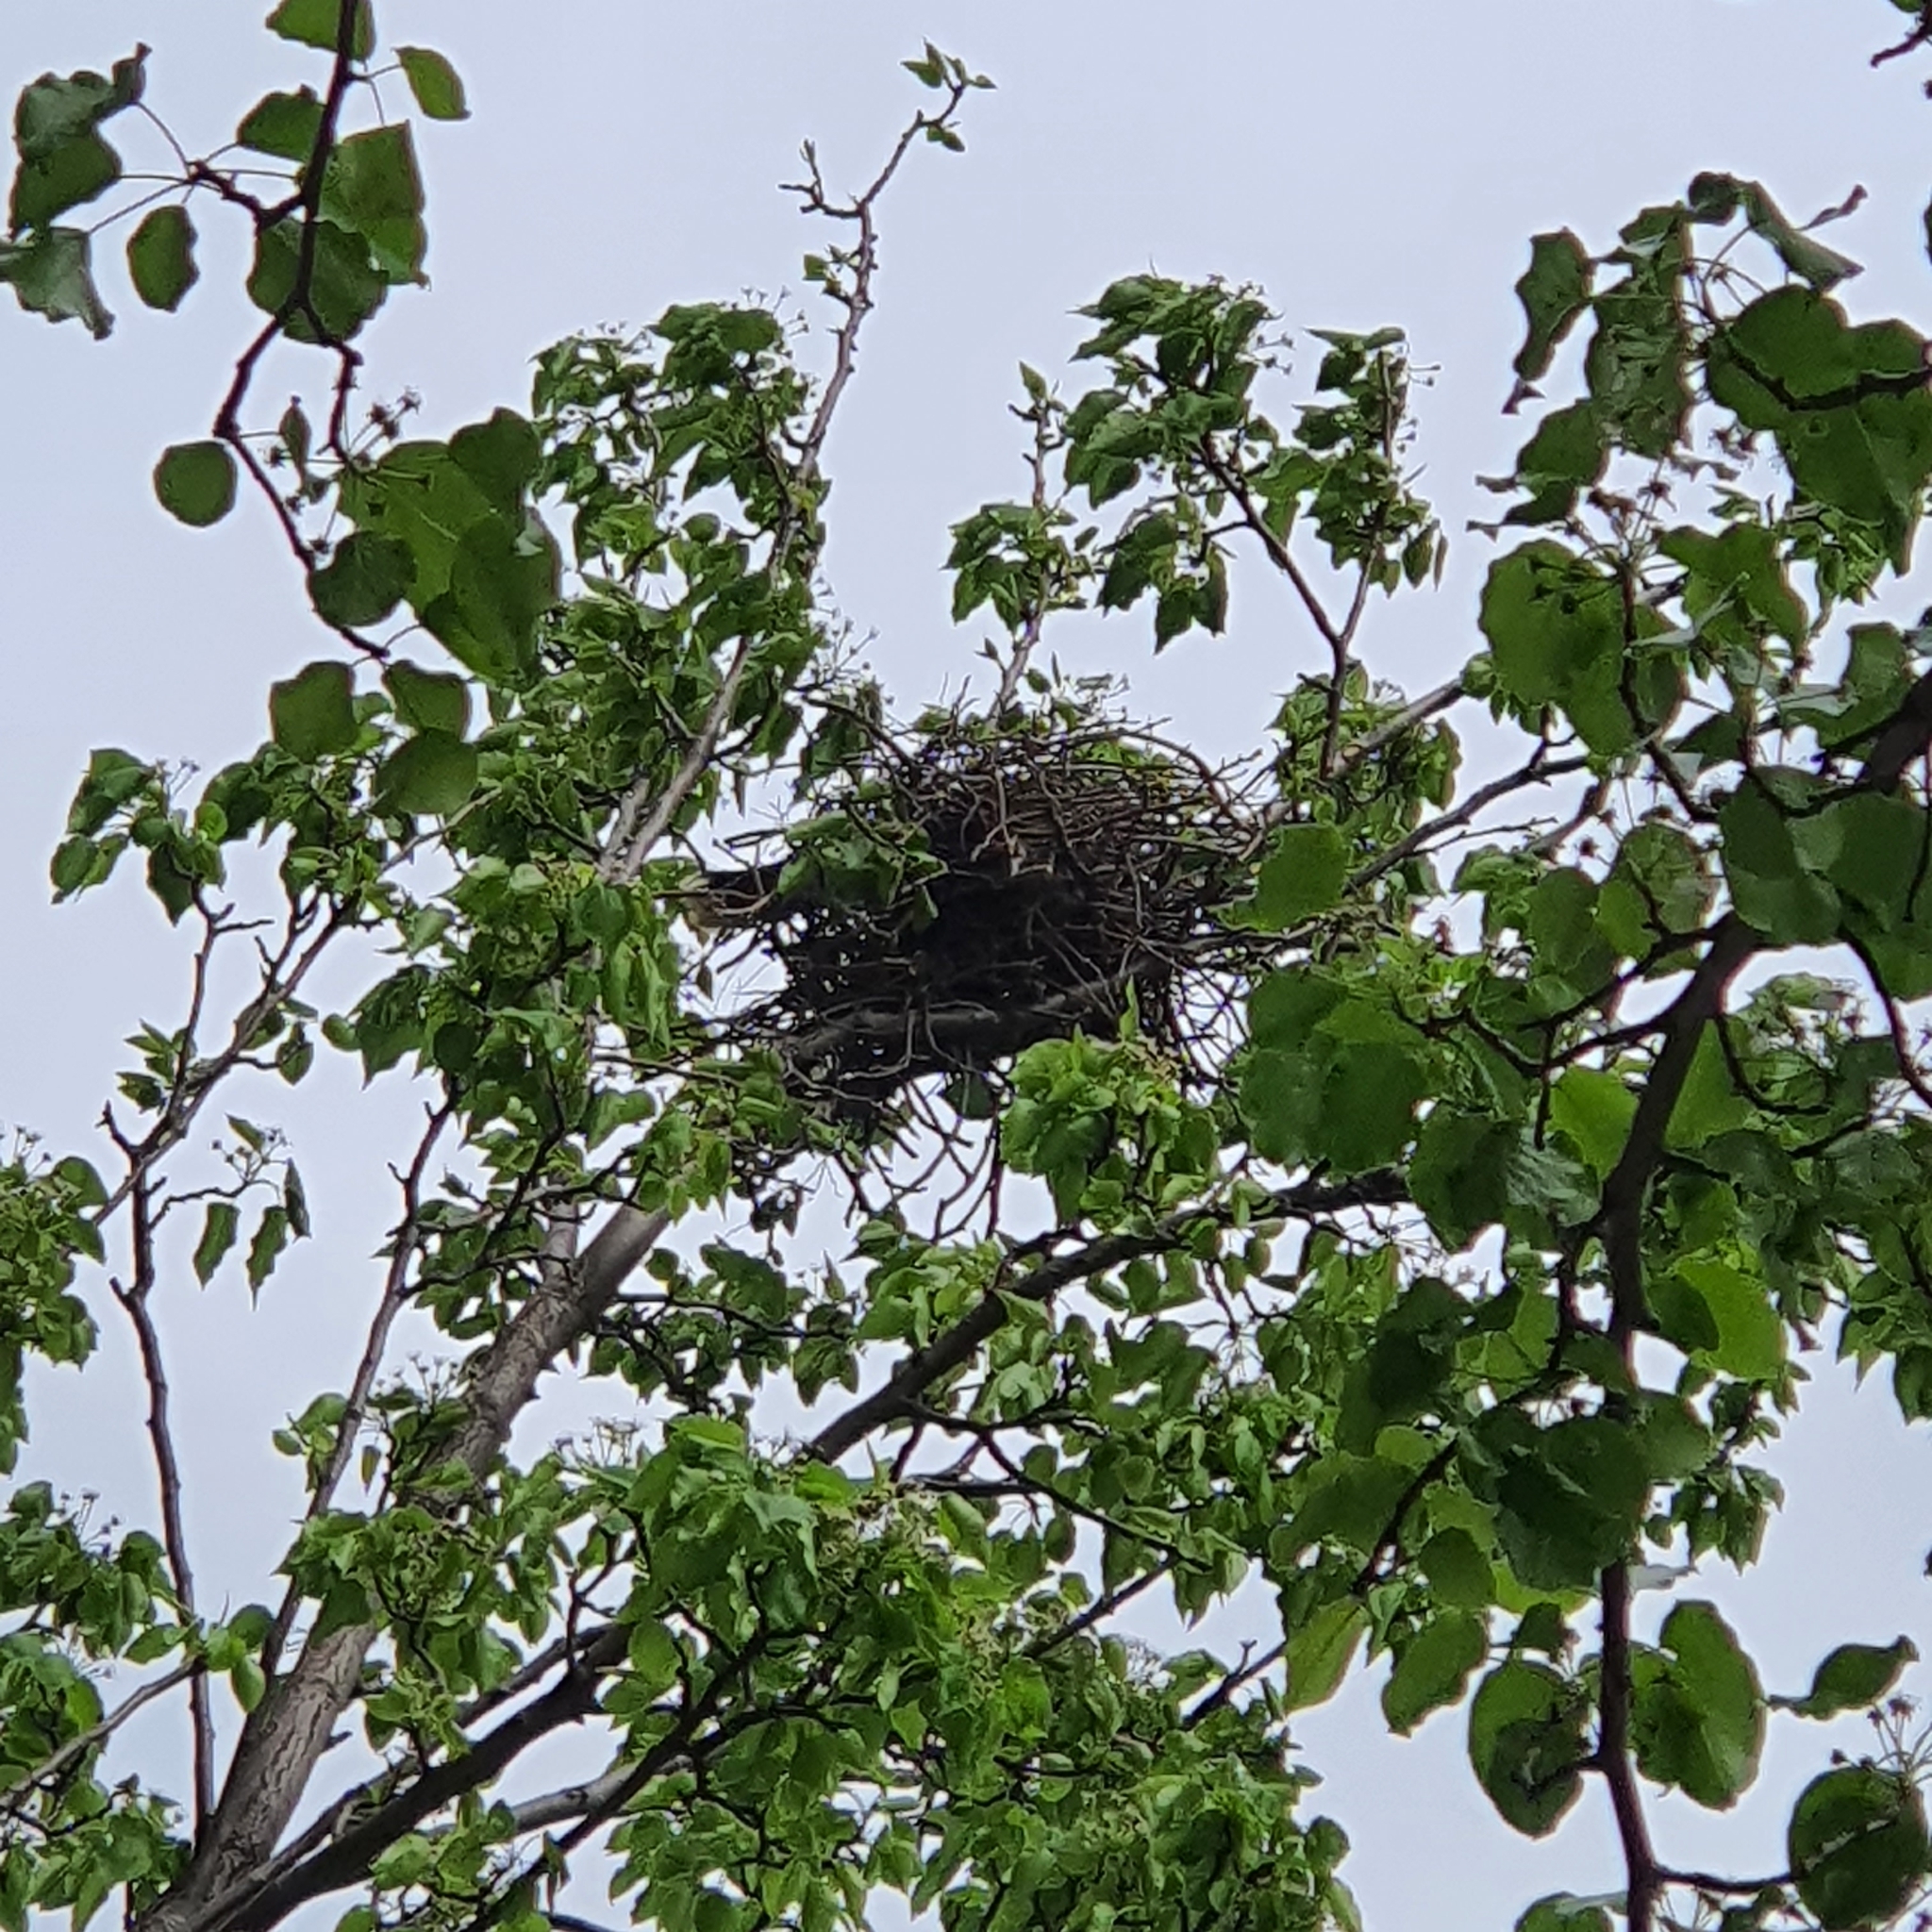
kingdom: Animalia
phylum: Chordata
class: Aves
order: Passeriformes
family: Cracticidae
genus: Strepera
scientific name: Strepera graculina
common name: Pied currawong
